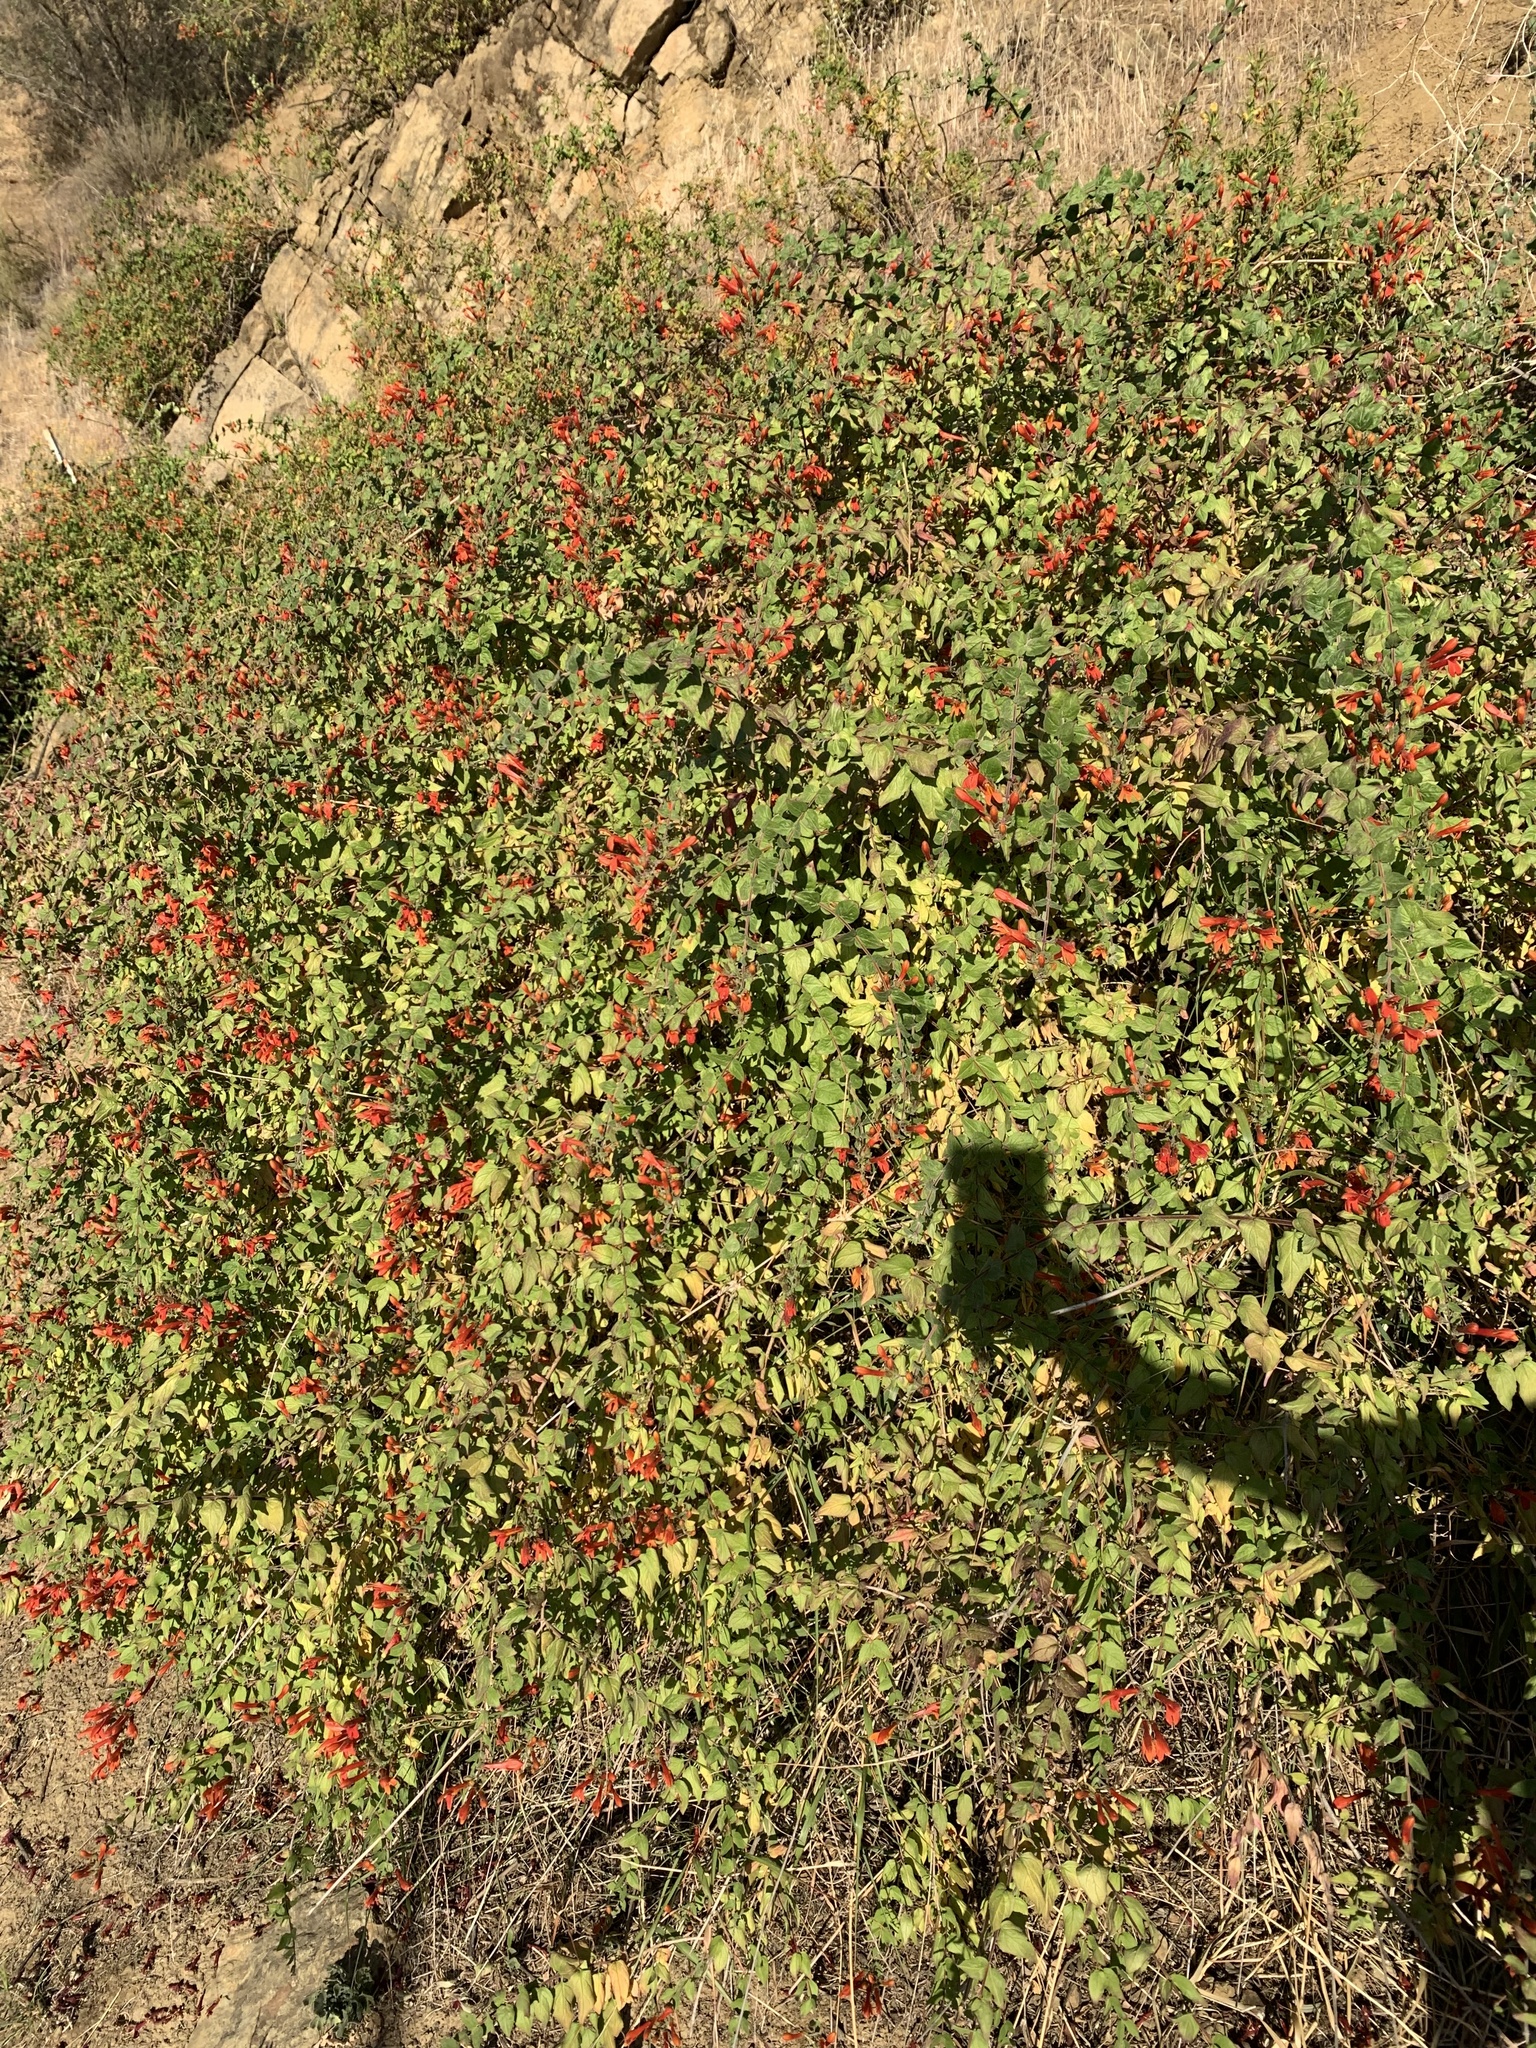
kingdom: Plantae
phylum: Tracheophyta
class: Magnoliopsida
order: Lamiales
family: Plantaginaceae
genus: Keckiella
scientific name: Keckiella cordifolia
